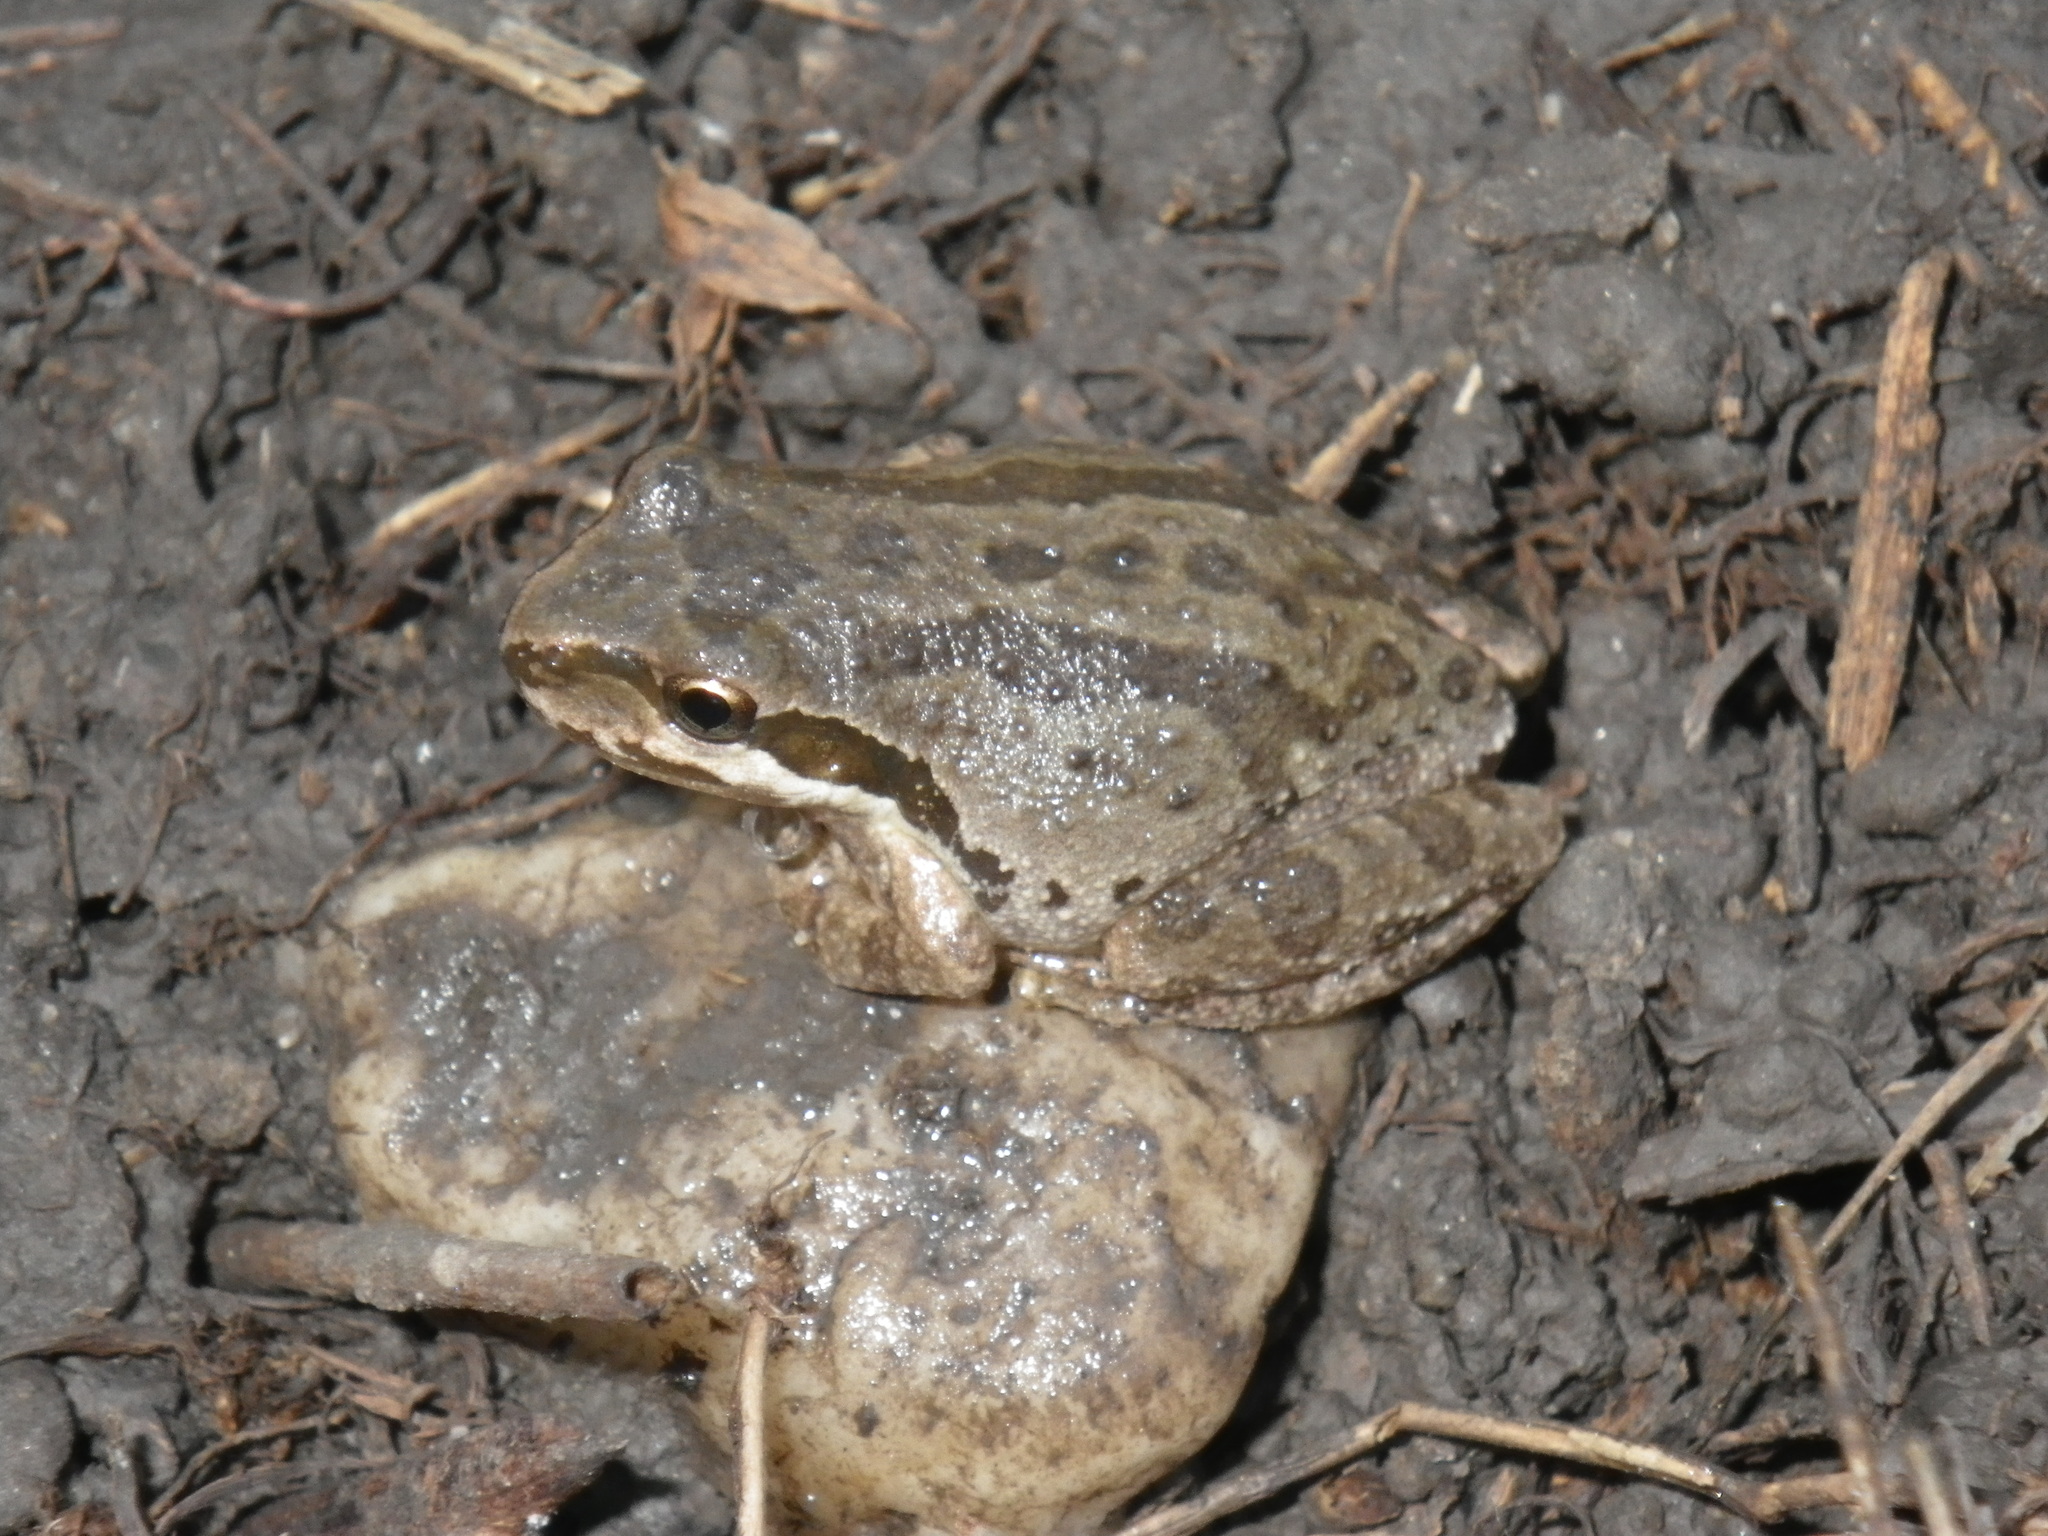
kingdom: Animalia
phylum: Chordata
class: Amphibia
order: Anura
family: Hylidae
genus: Pseudacris
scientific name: Pseudacris regilla
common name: Pacific chorus frog
